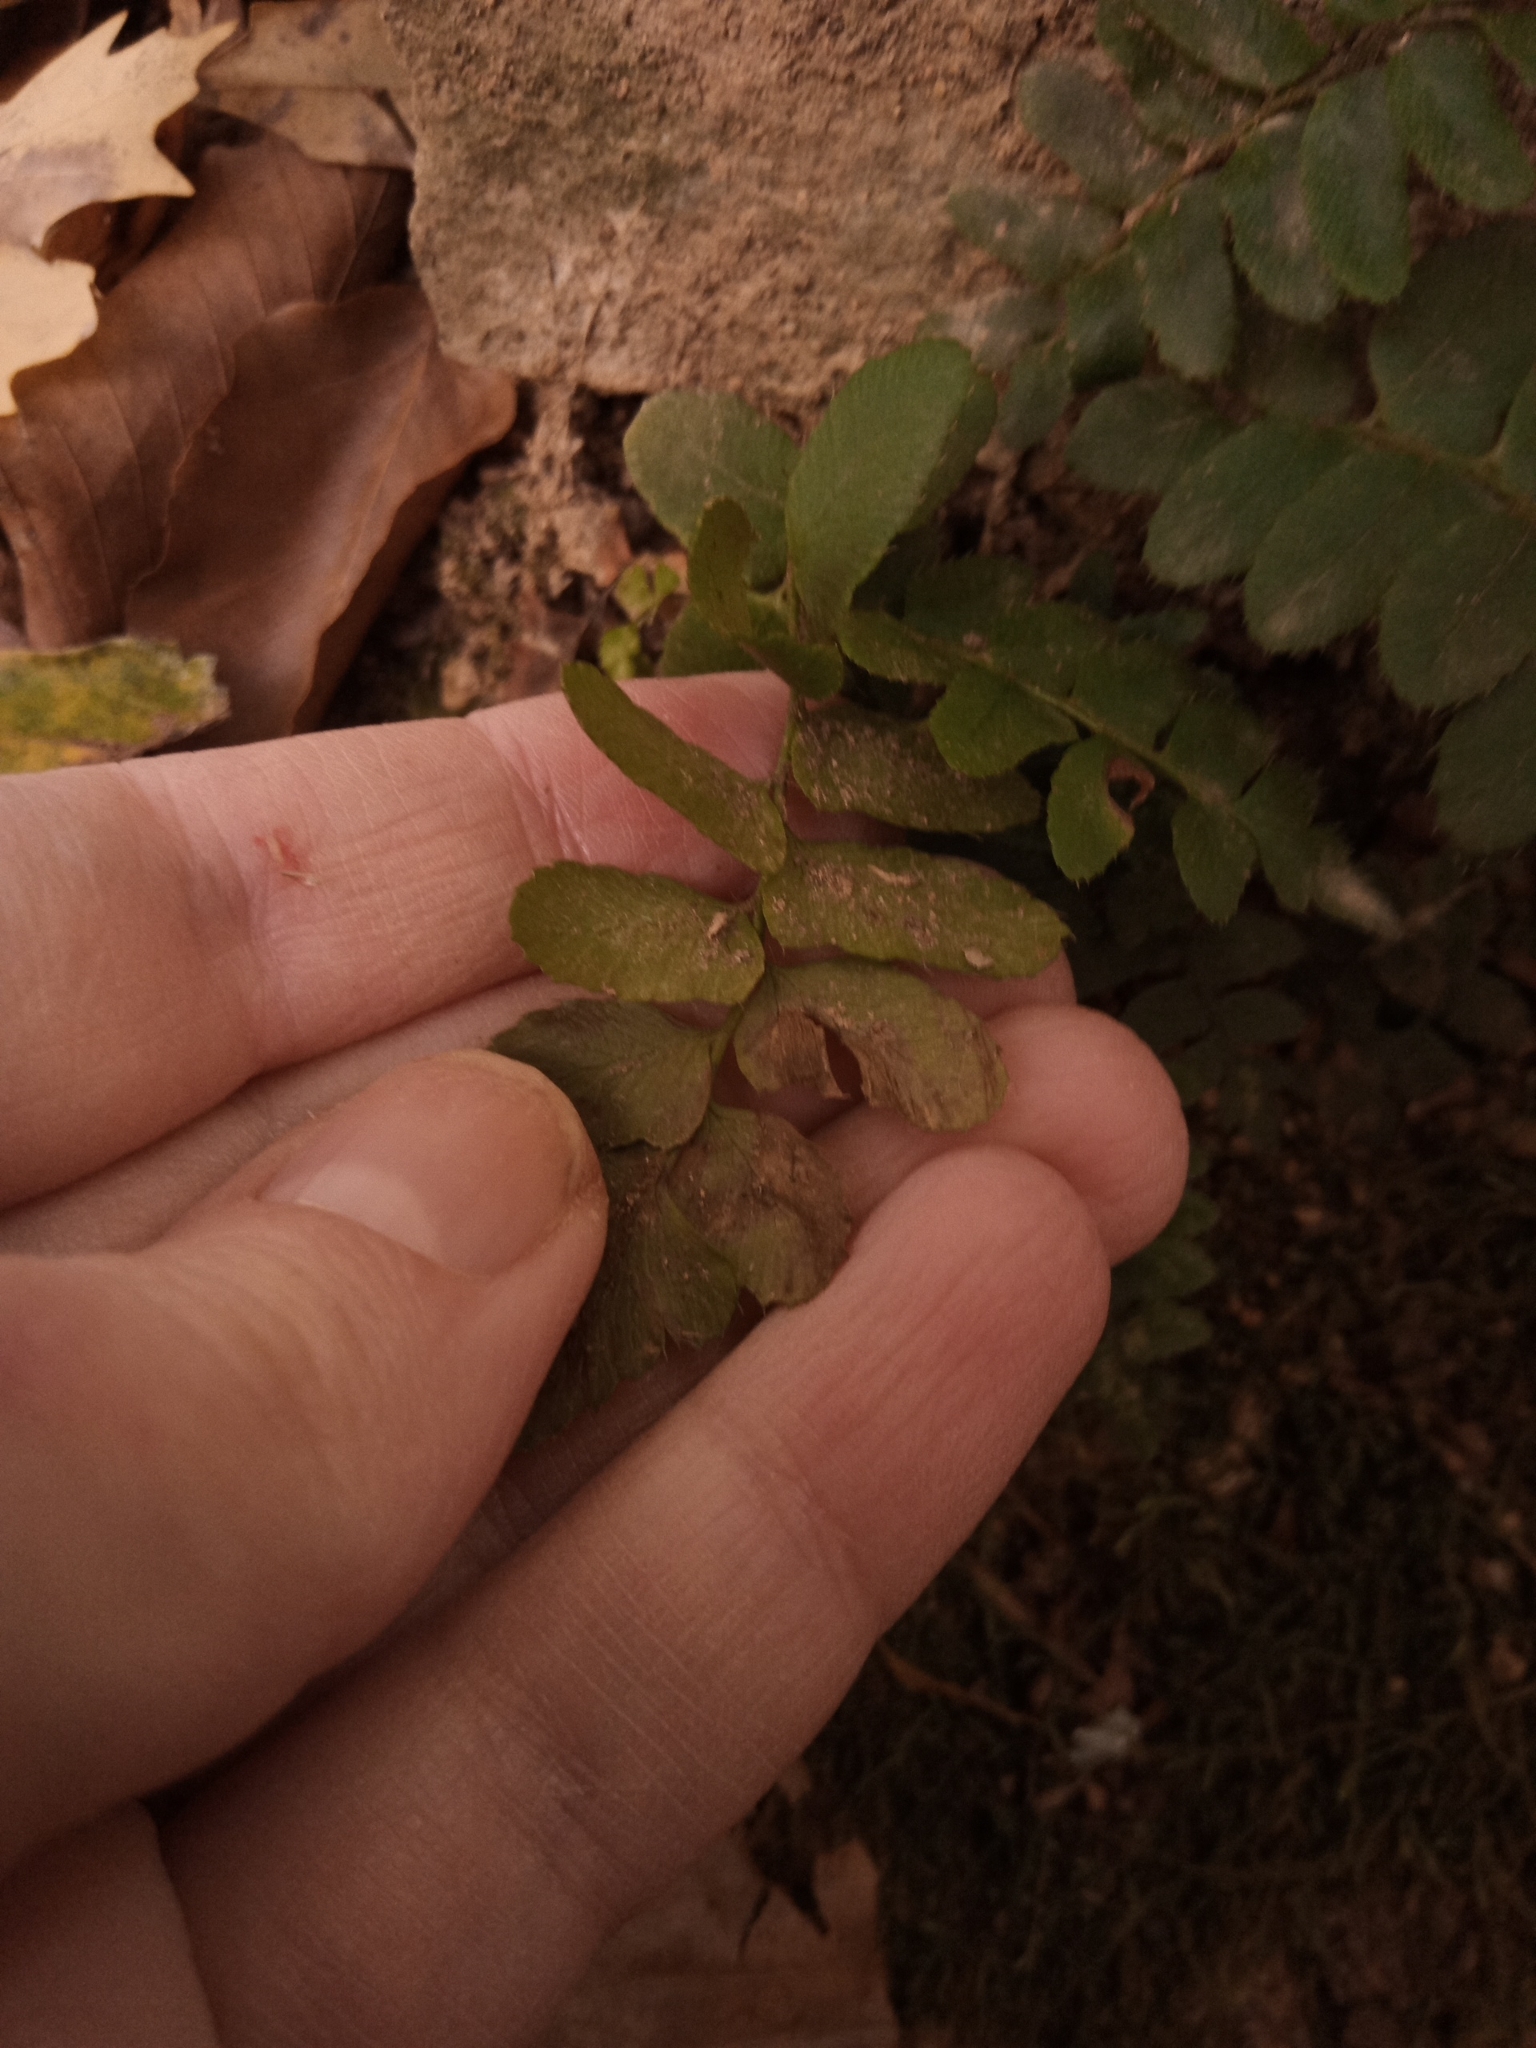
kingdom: Plantae
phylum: Tracheophyta
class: Polypodiopsida
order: Polypodiales
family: Aspleniaceae
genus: Asplenium
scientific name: Asplenium platyneuron
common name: Ebony spleenwort
